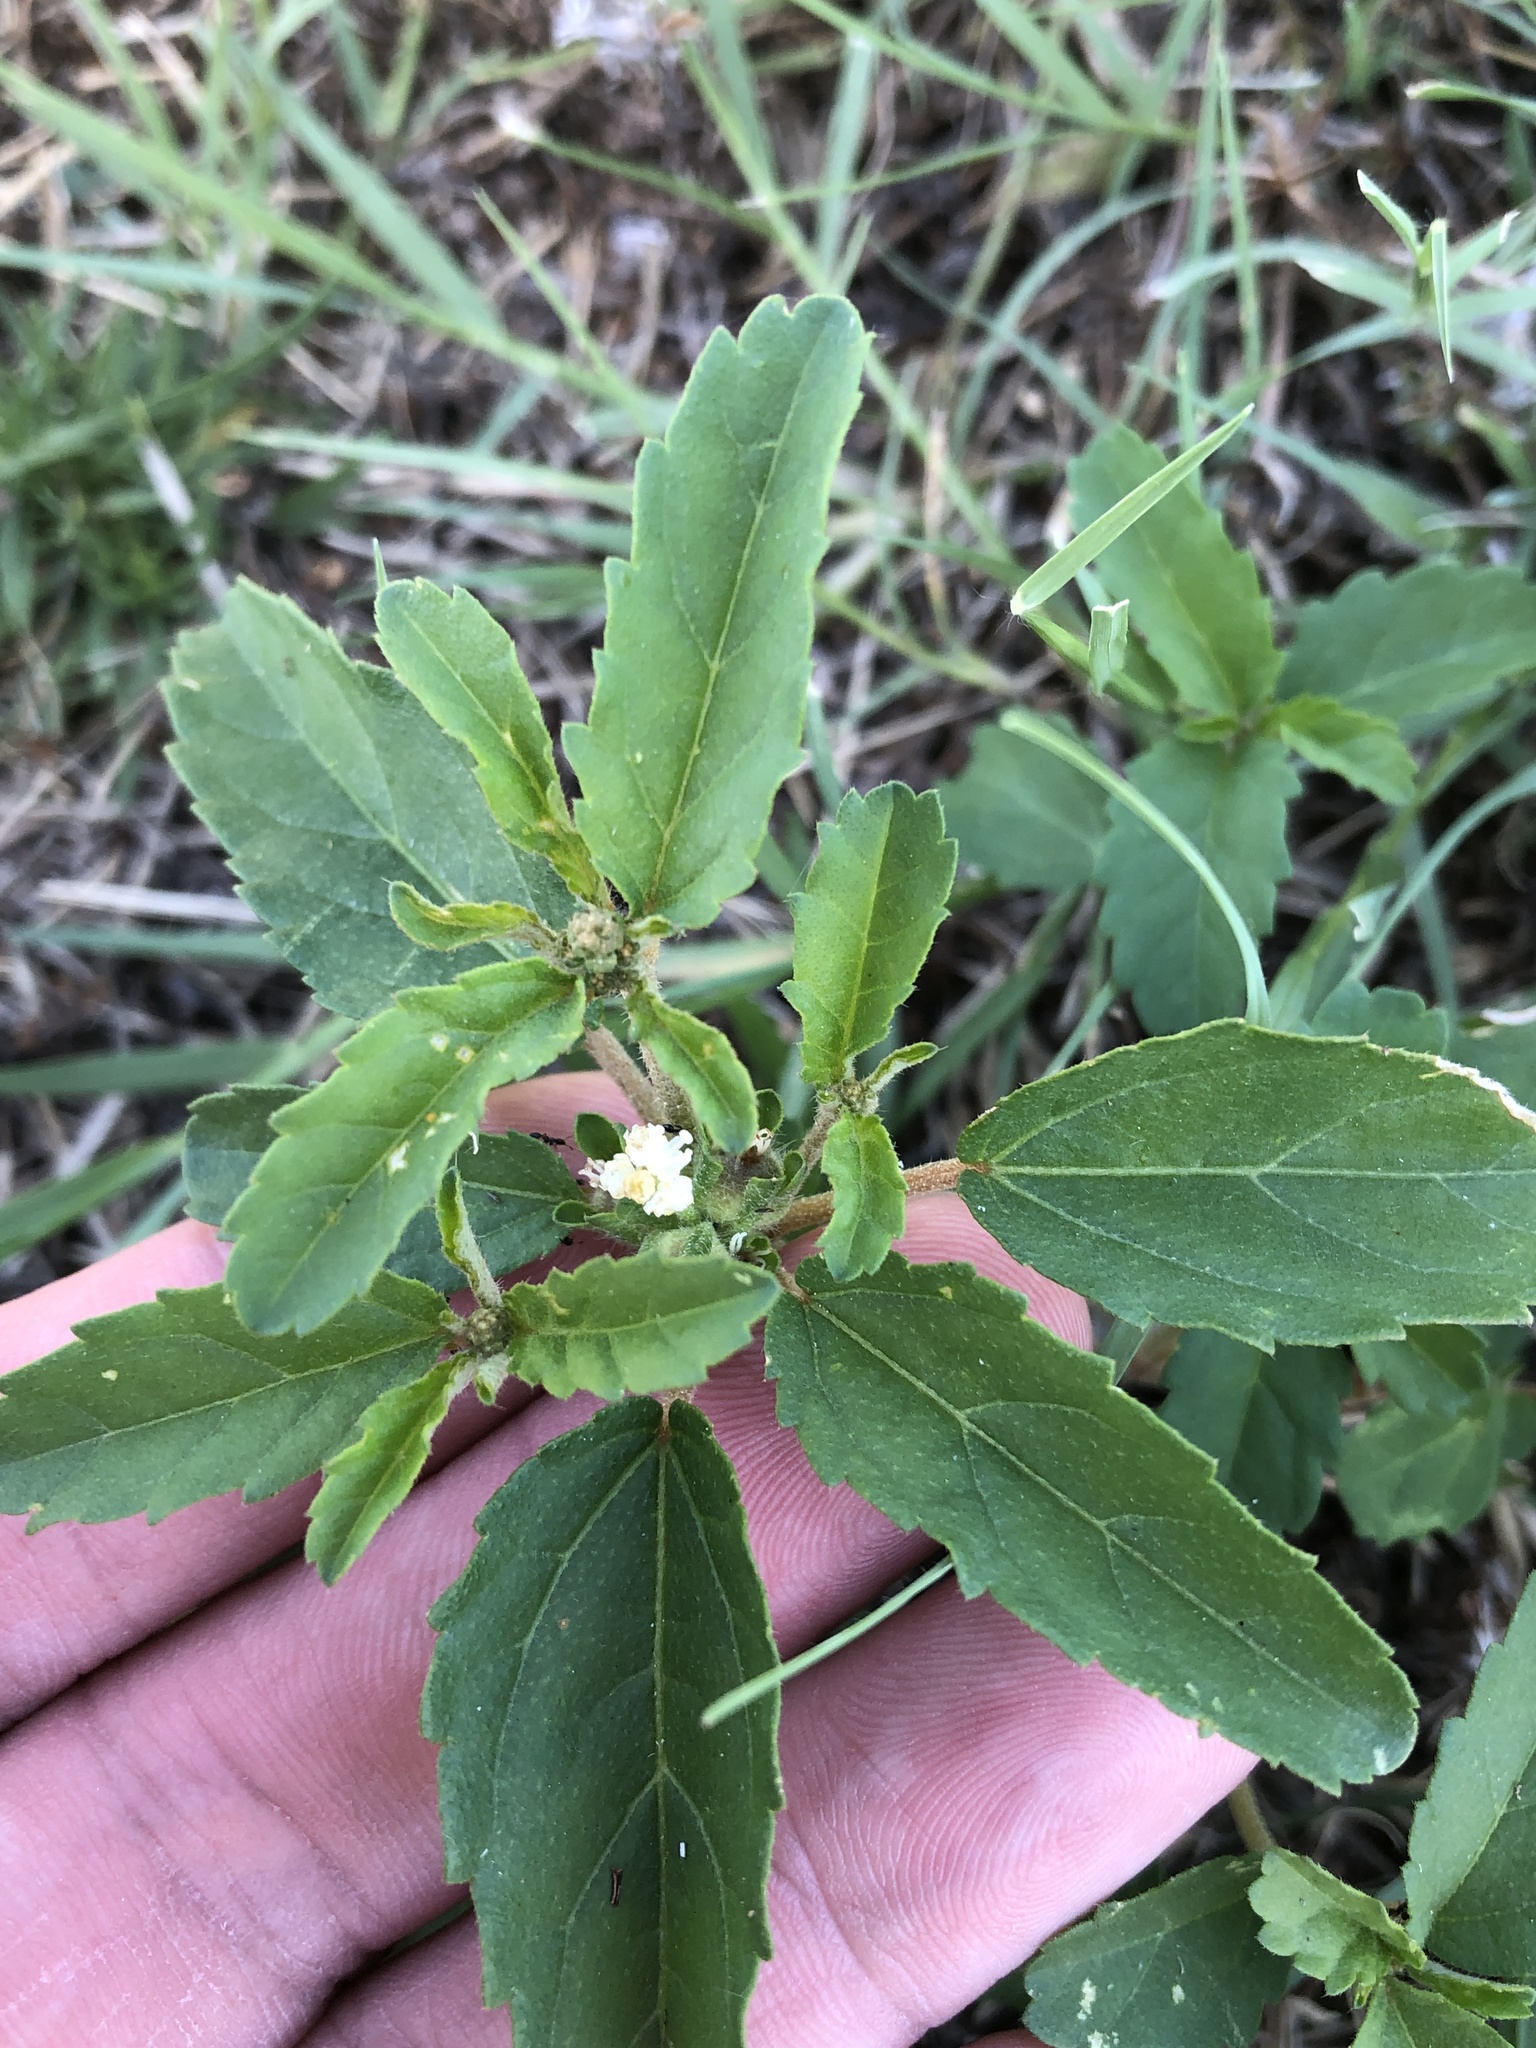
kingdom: Plantae
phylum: Tracheophyta
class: Magnoliopsida
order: Malpighiales
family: Euphorbiaceae
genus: Croton
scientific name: Croton glandulosus
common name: Tropic croton
